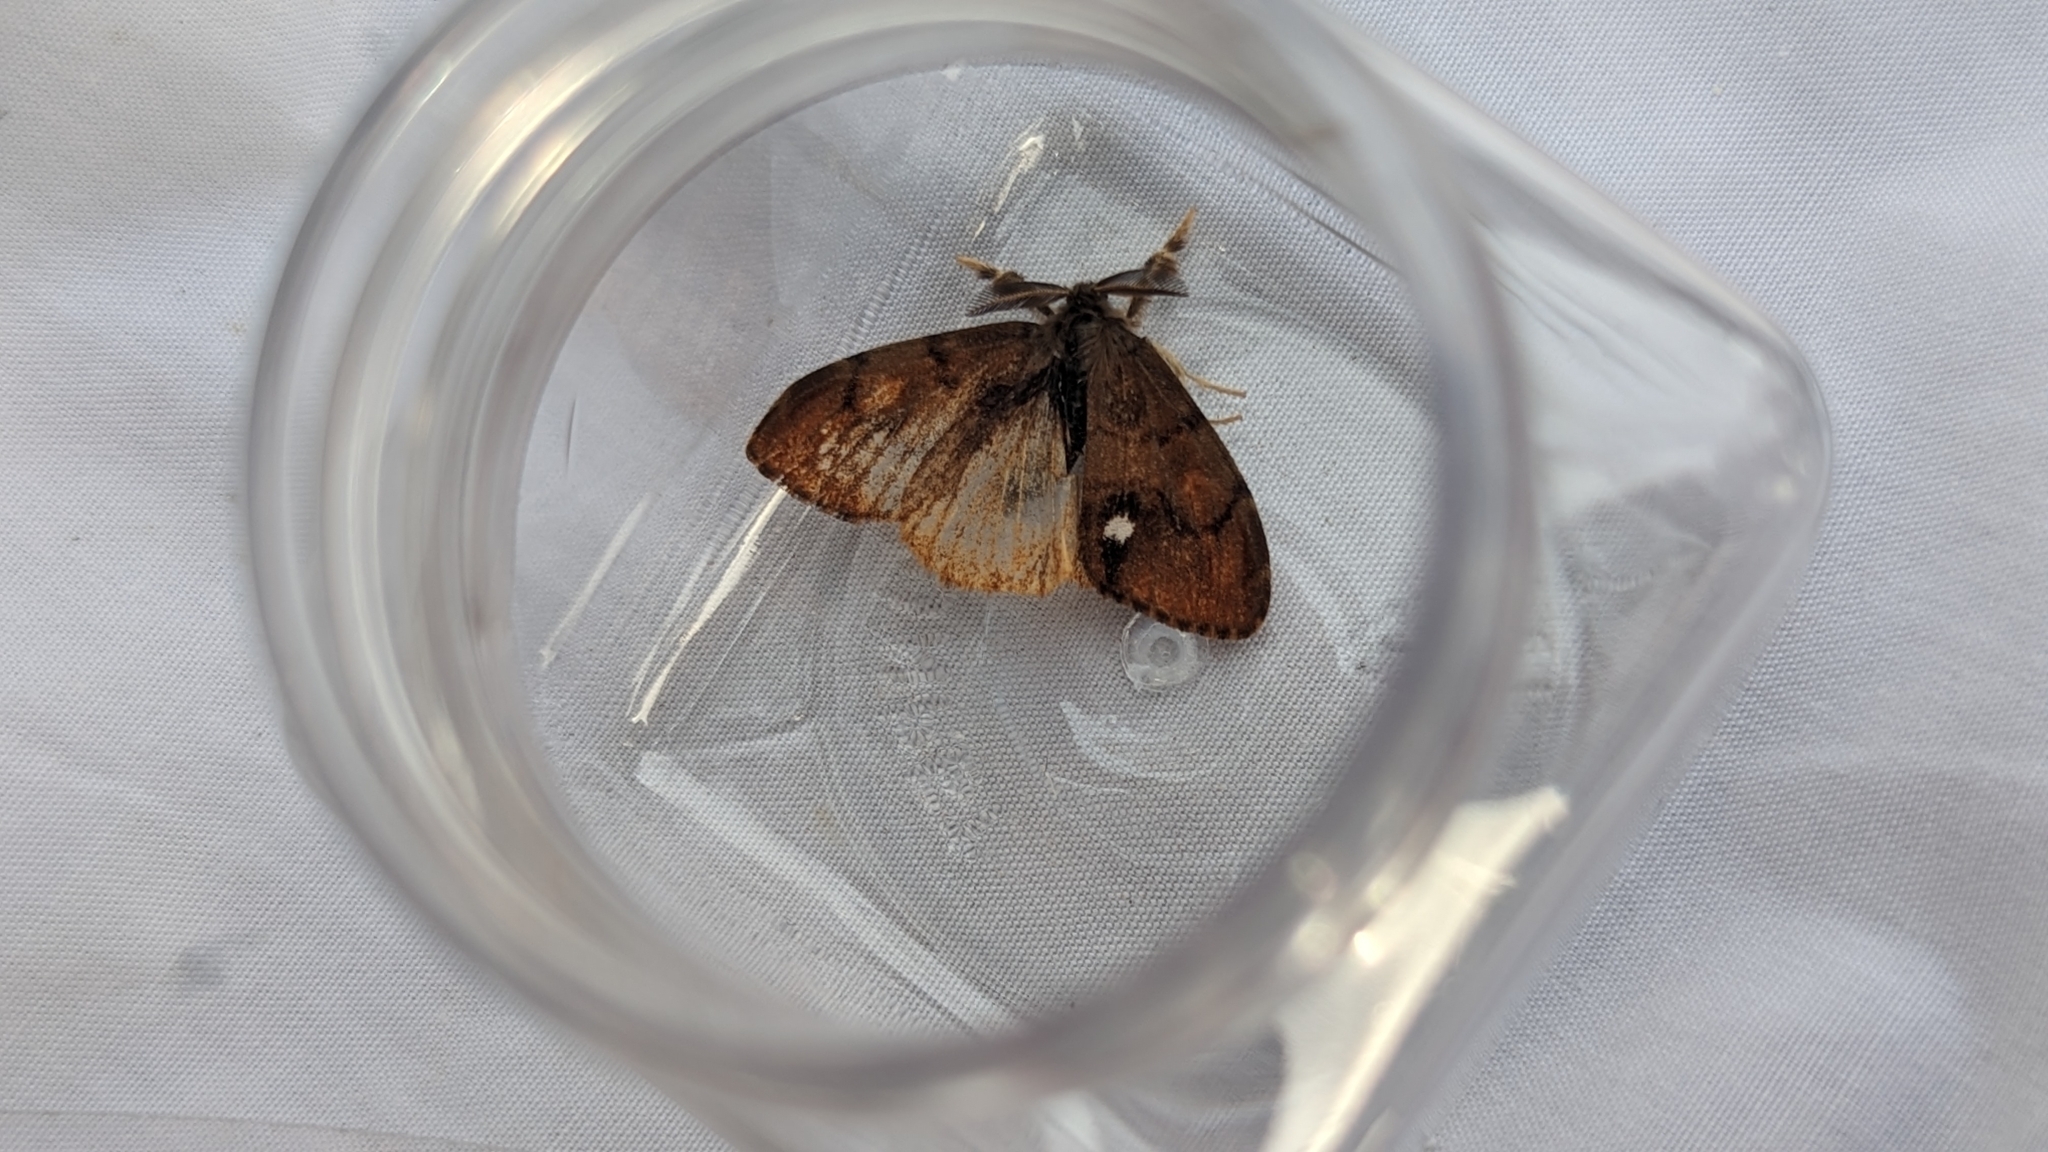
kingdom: Animalia
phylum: Arthropoda
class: Insecta
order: Lepidoptera
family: Erebidae
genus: Orgyia
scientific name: Orgyia antiqua
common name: Vapourer
